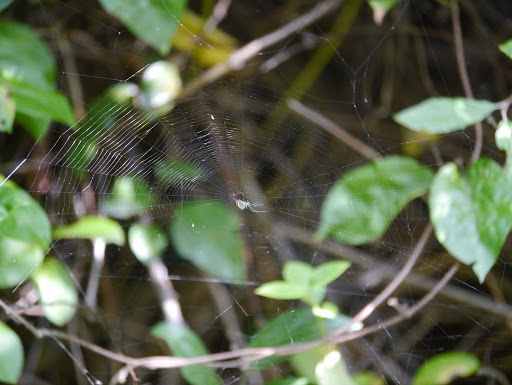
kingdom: Animalia
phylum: Arthropoda
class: Arachnida
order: Araneae
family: Tetragnathidae
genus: Leucauge
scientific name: Leucauge venusta
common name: Longjawed orb weavers
